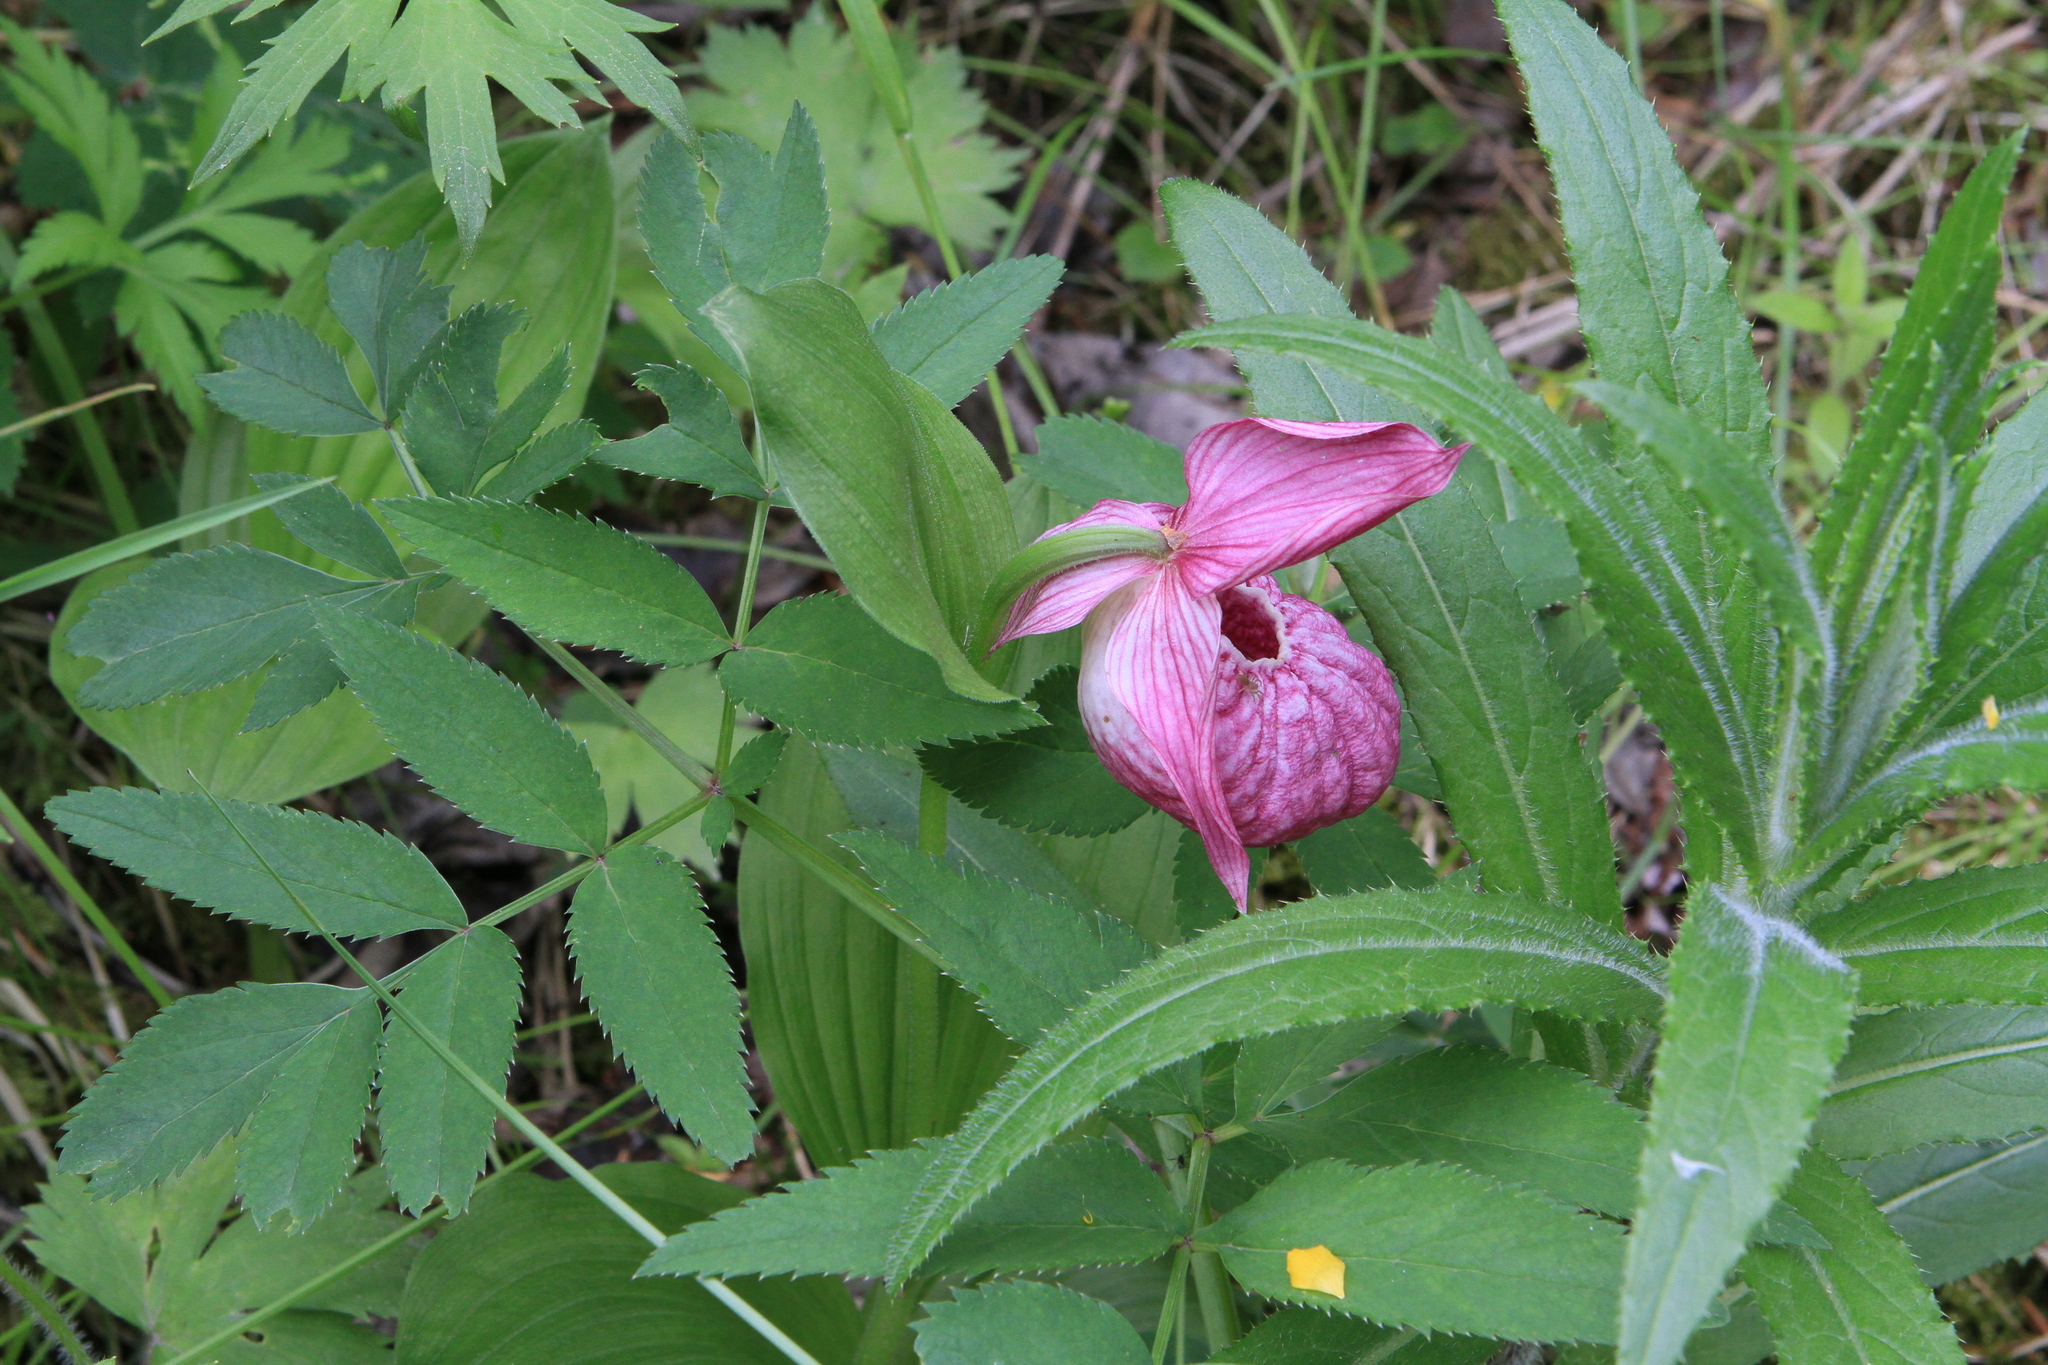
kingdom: Plantae
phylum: Tracheophyta
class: Liliopsida
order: Asparagales
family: Orchidaceae
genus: Cypripedium
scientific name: Cypripedium macranthos
